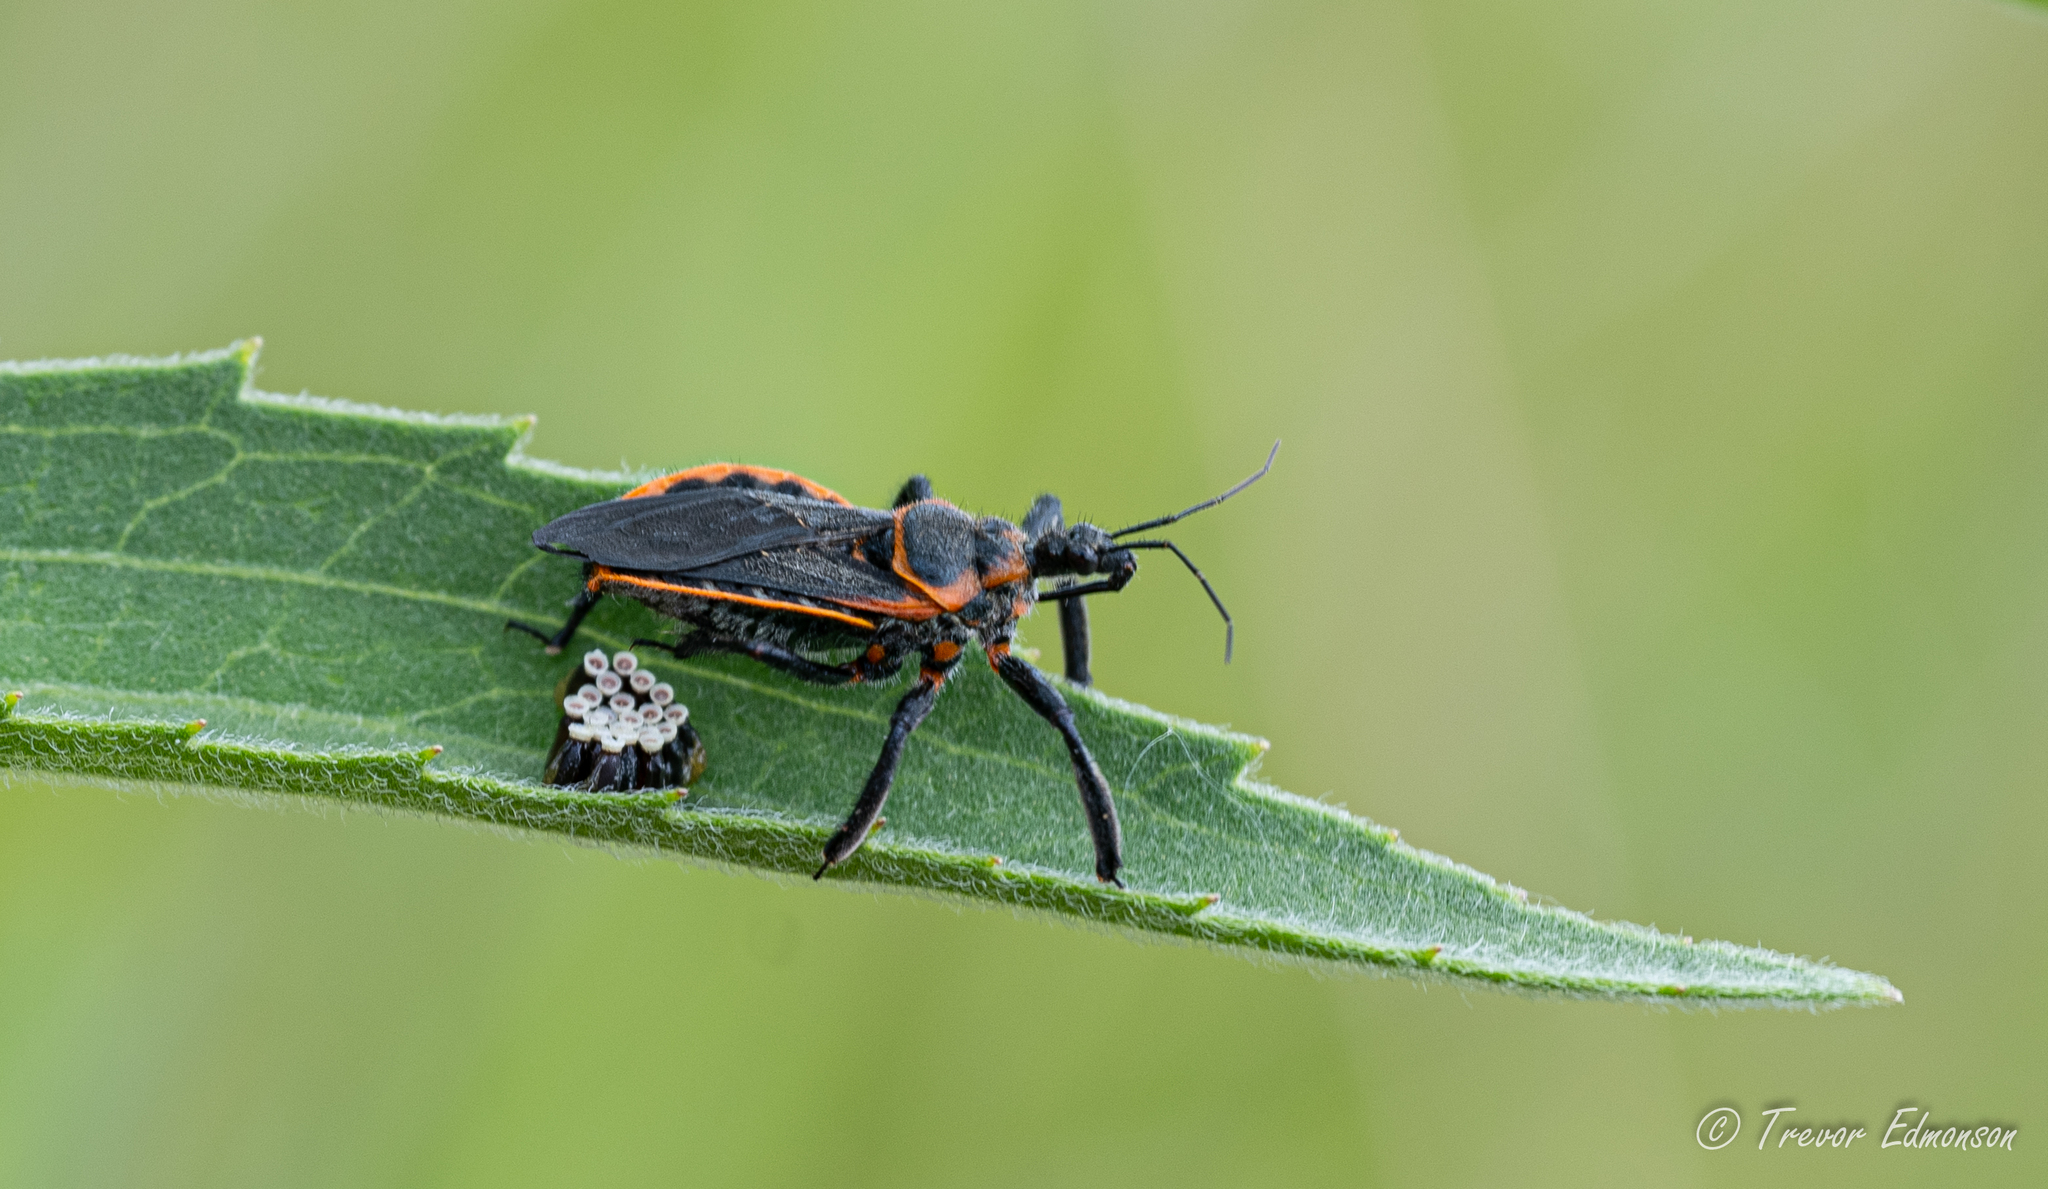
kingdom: Animalia
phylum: Arthropoda
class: Insecta
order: Hemiptera
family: Reduviidae
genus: Apiomerus
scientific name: Apiomerus crassipes
